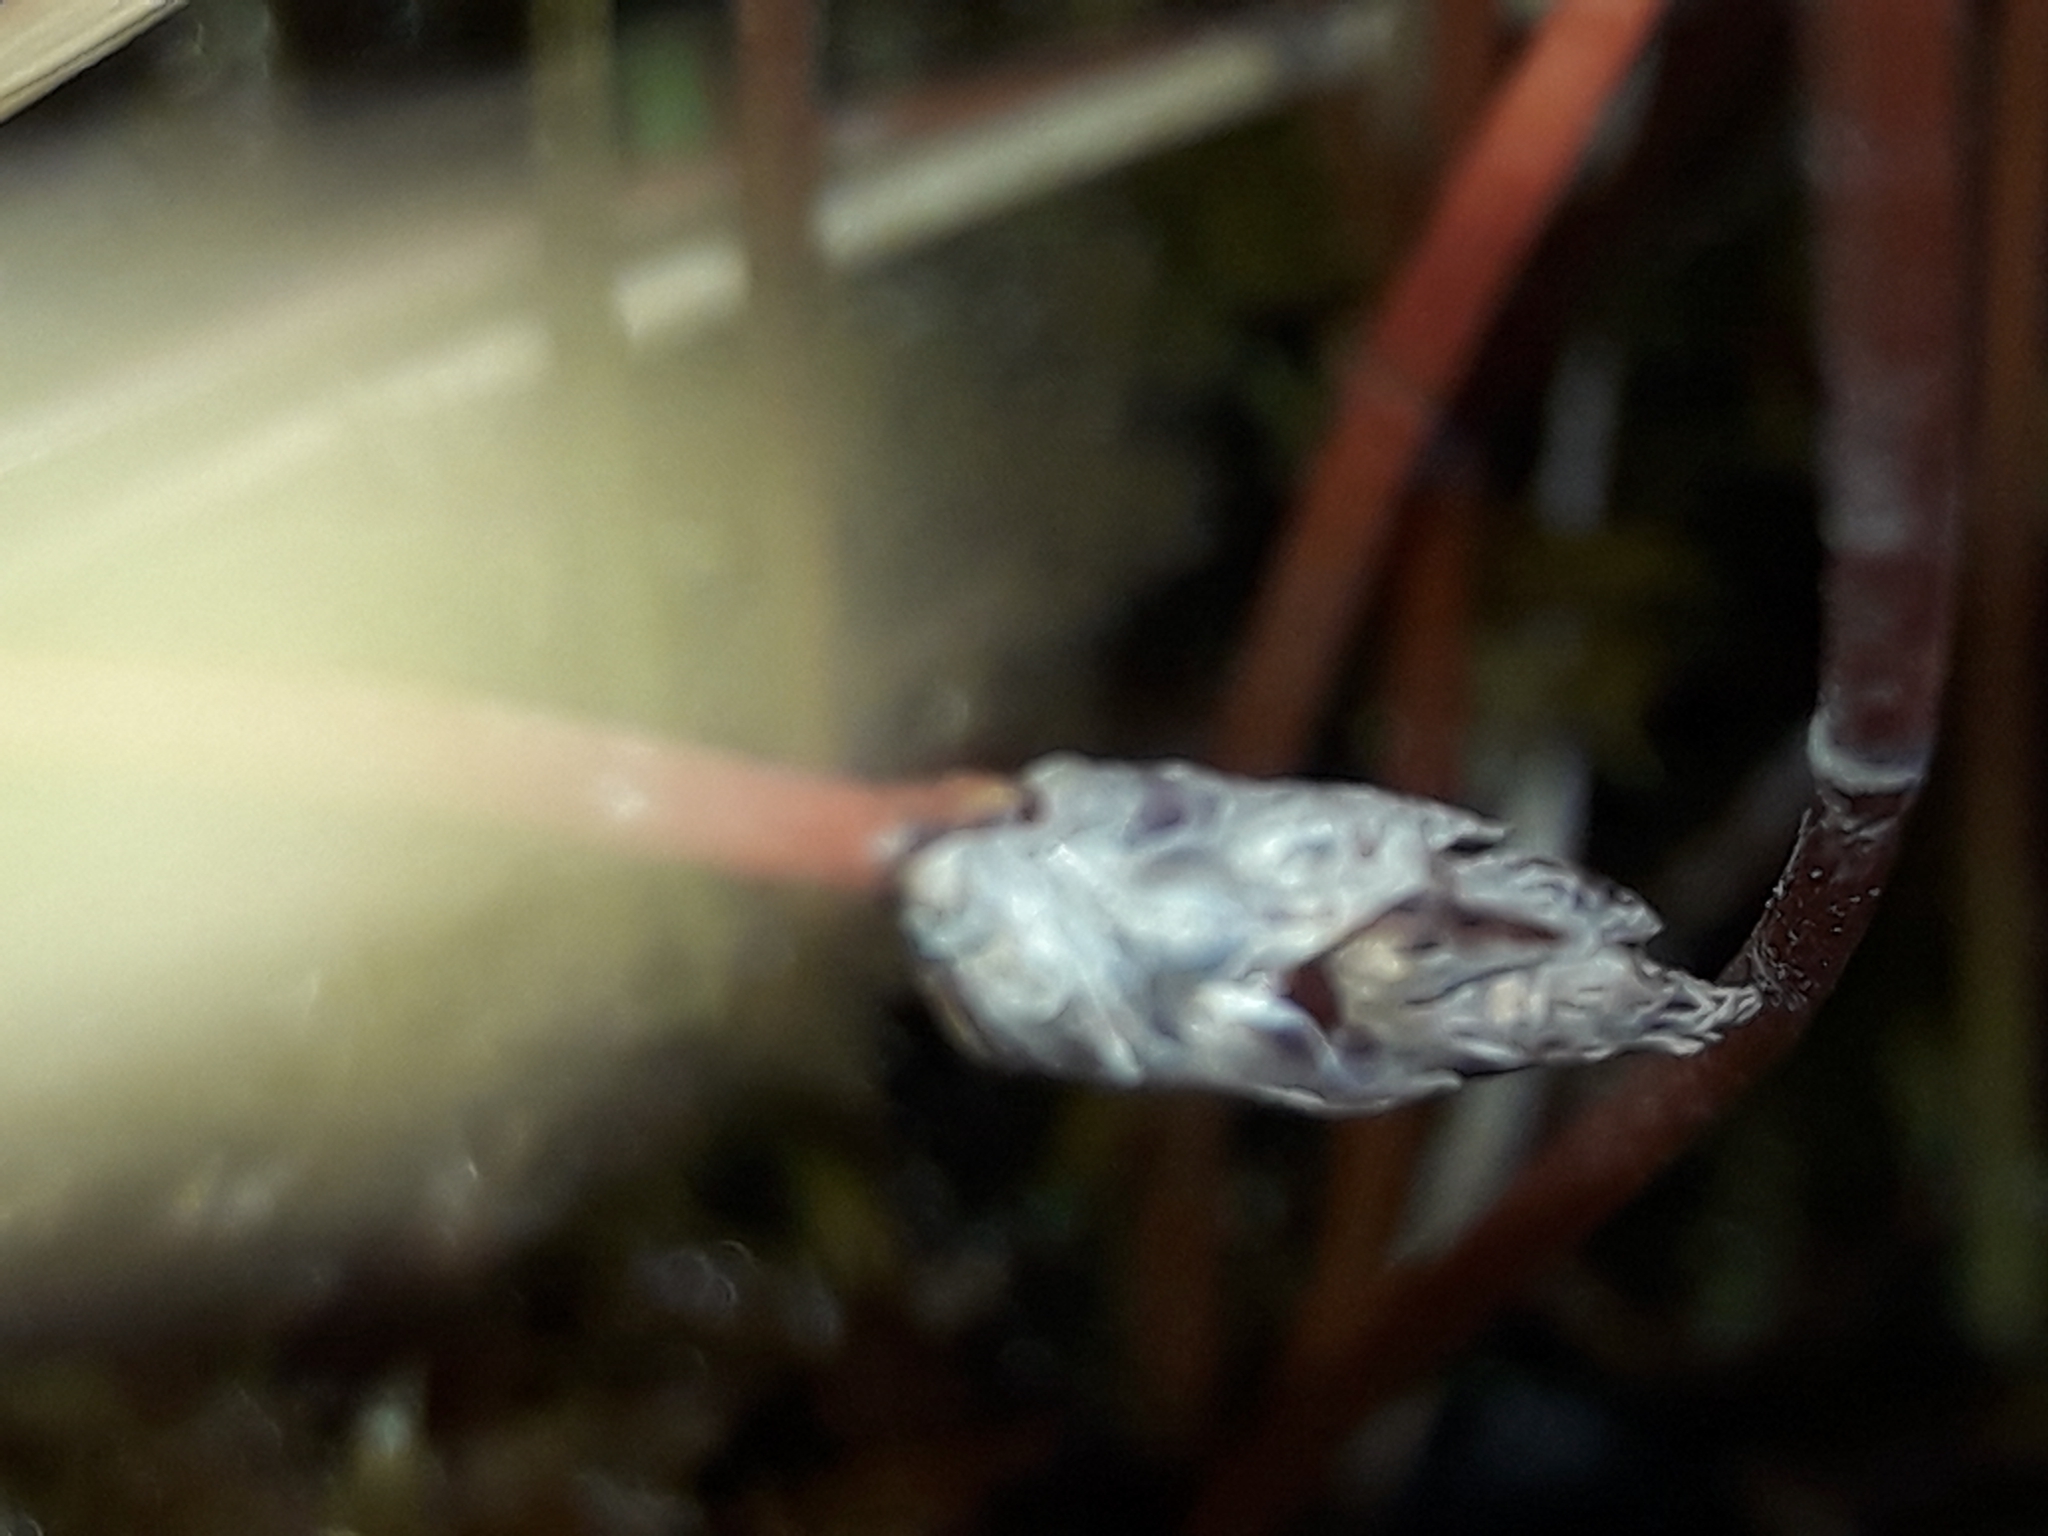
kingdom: Plantae
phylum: Tracheophyta
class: Liliopsida
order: Poales
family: Cyperaceae
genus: Eleocharis
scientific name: Eleocharis acuta
